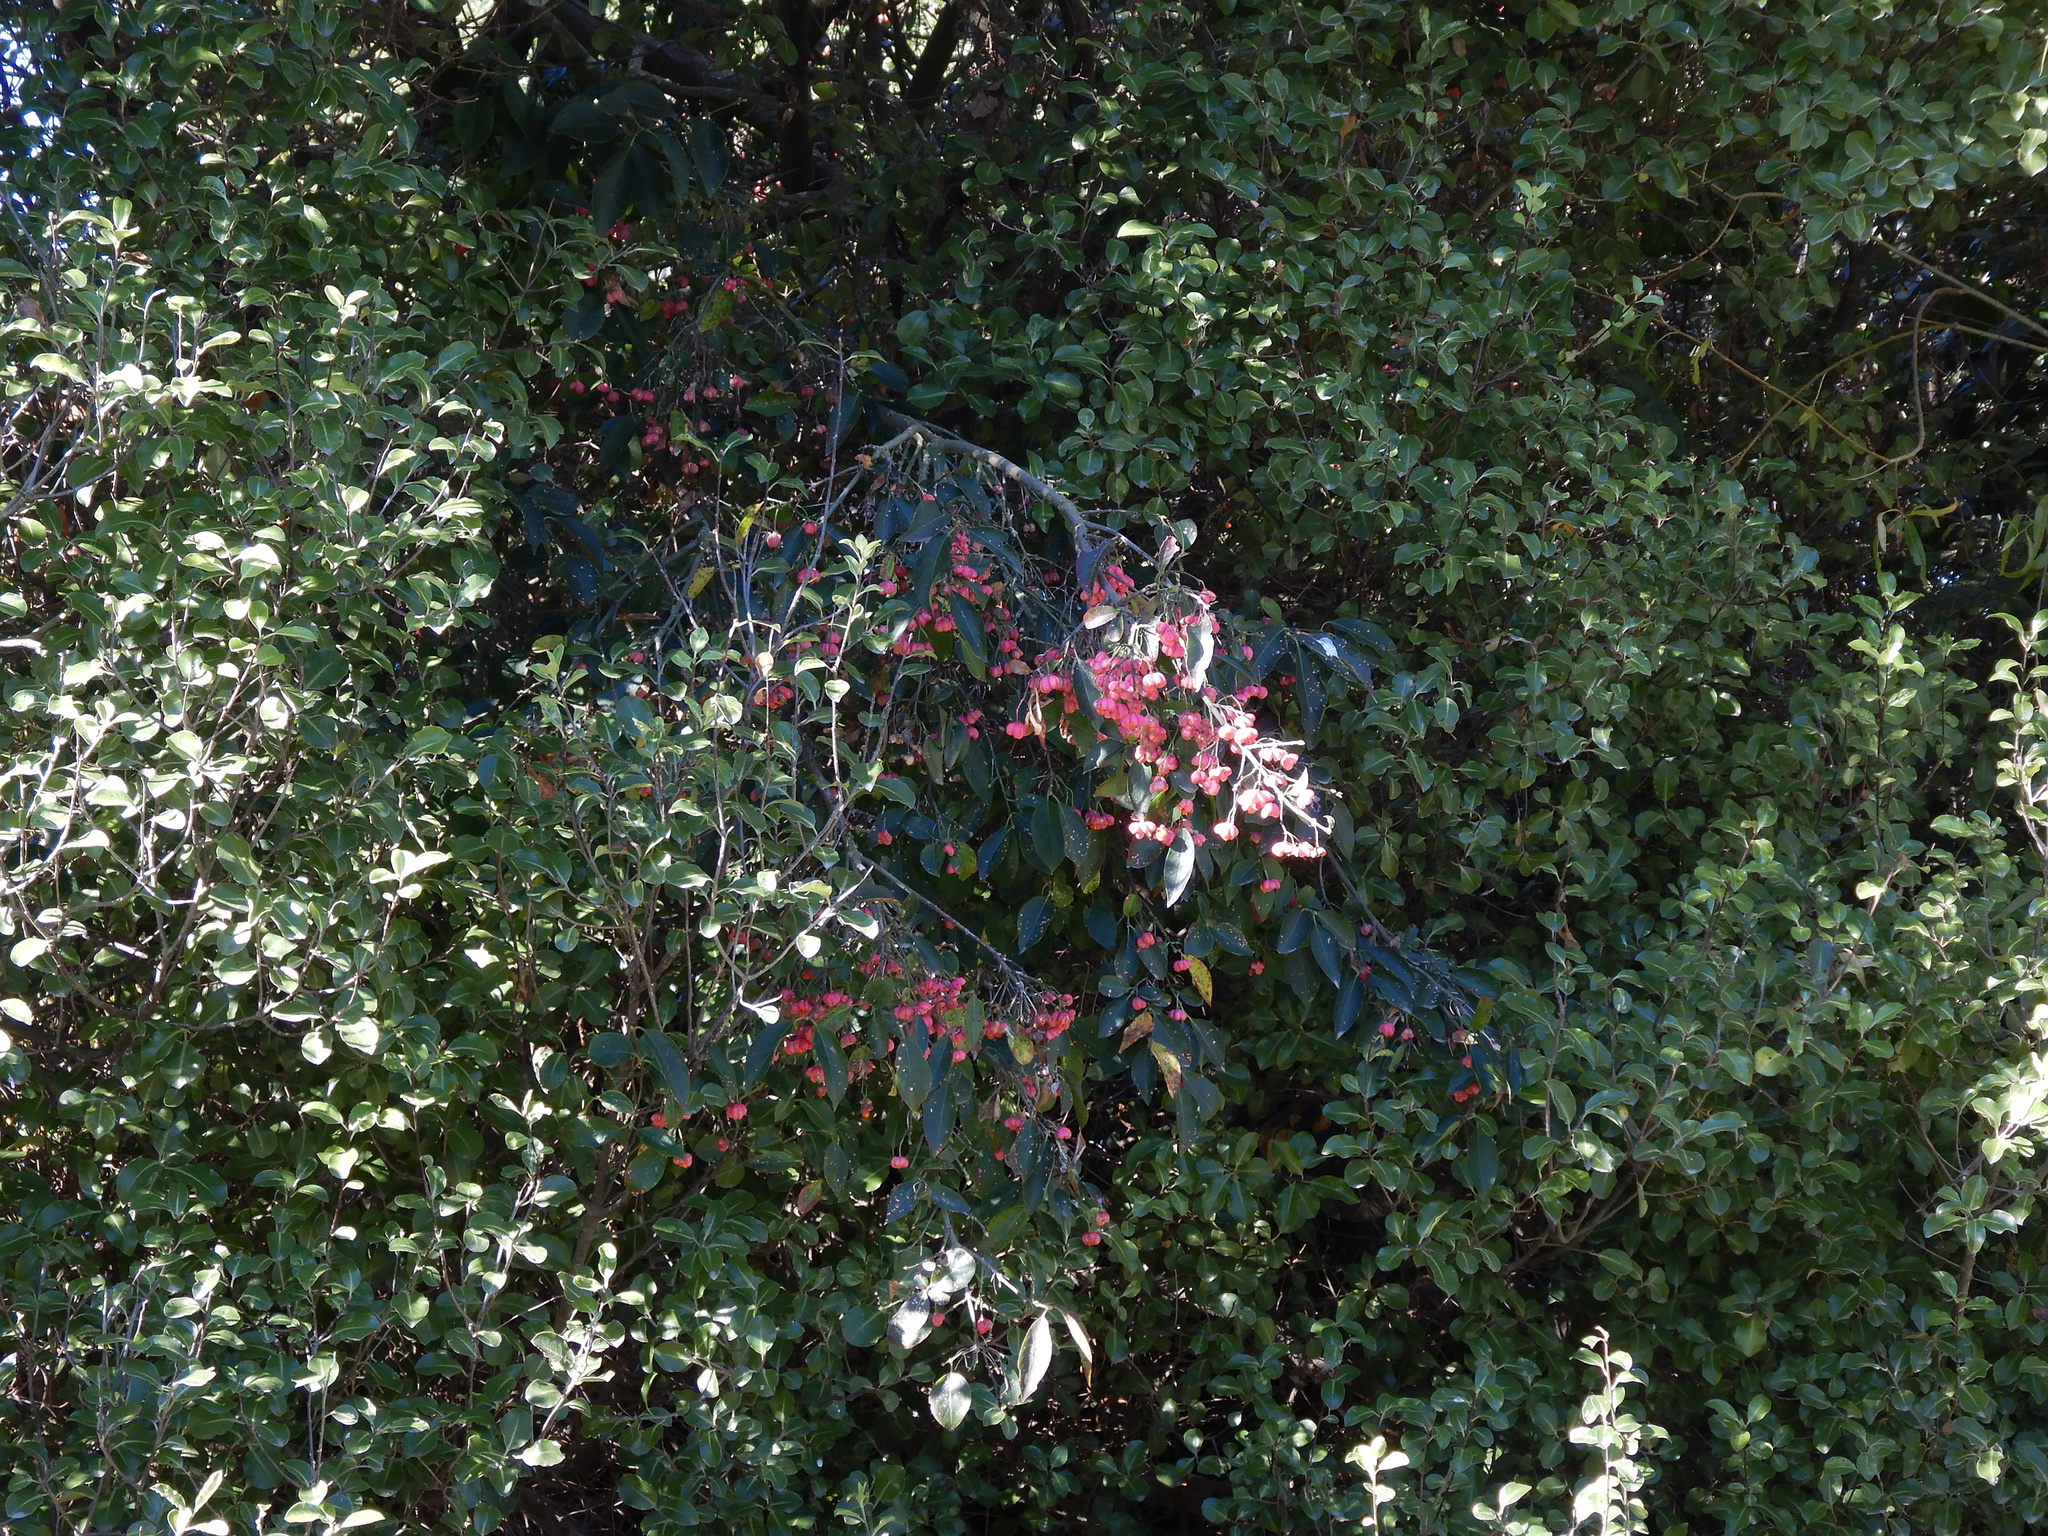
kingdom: Plantae
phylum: Tracheophyta
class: Magnoliopsida
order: Celastrales
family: Celastraceae
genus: Euonymus
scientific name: Euonymus europaeus
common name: Spindle
